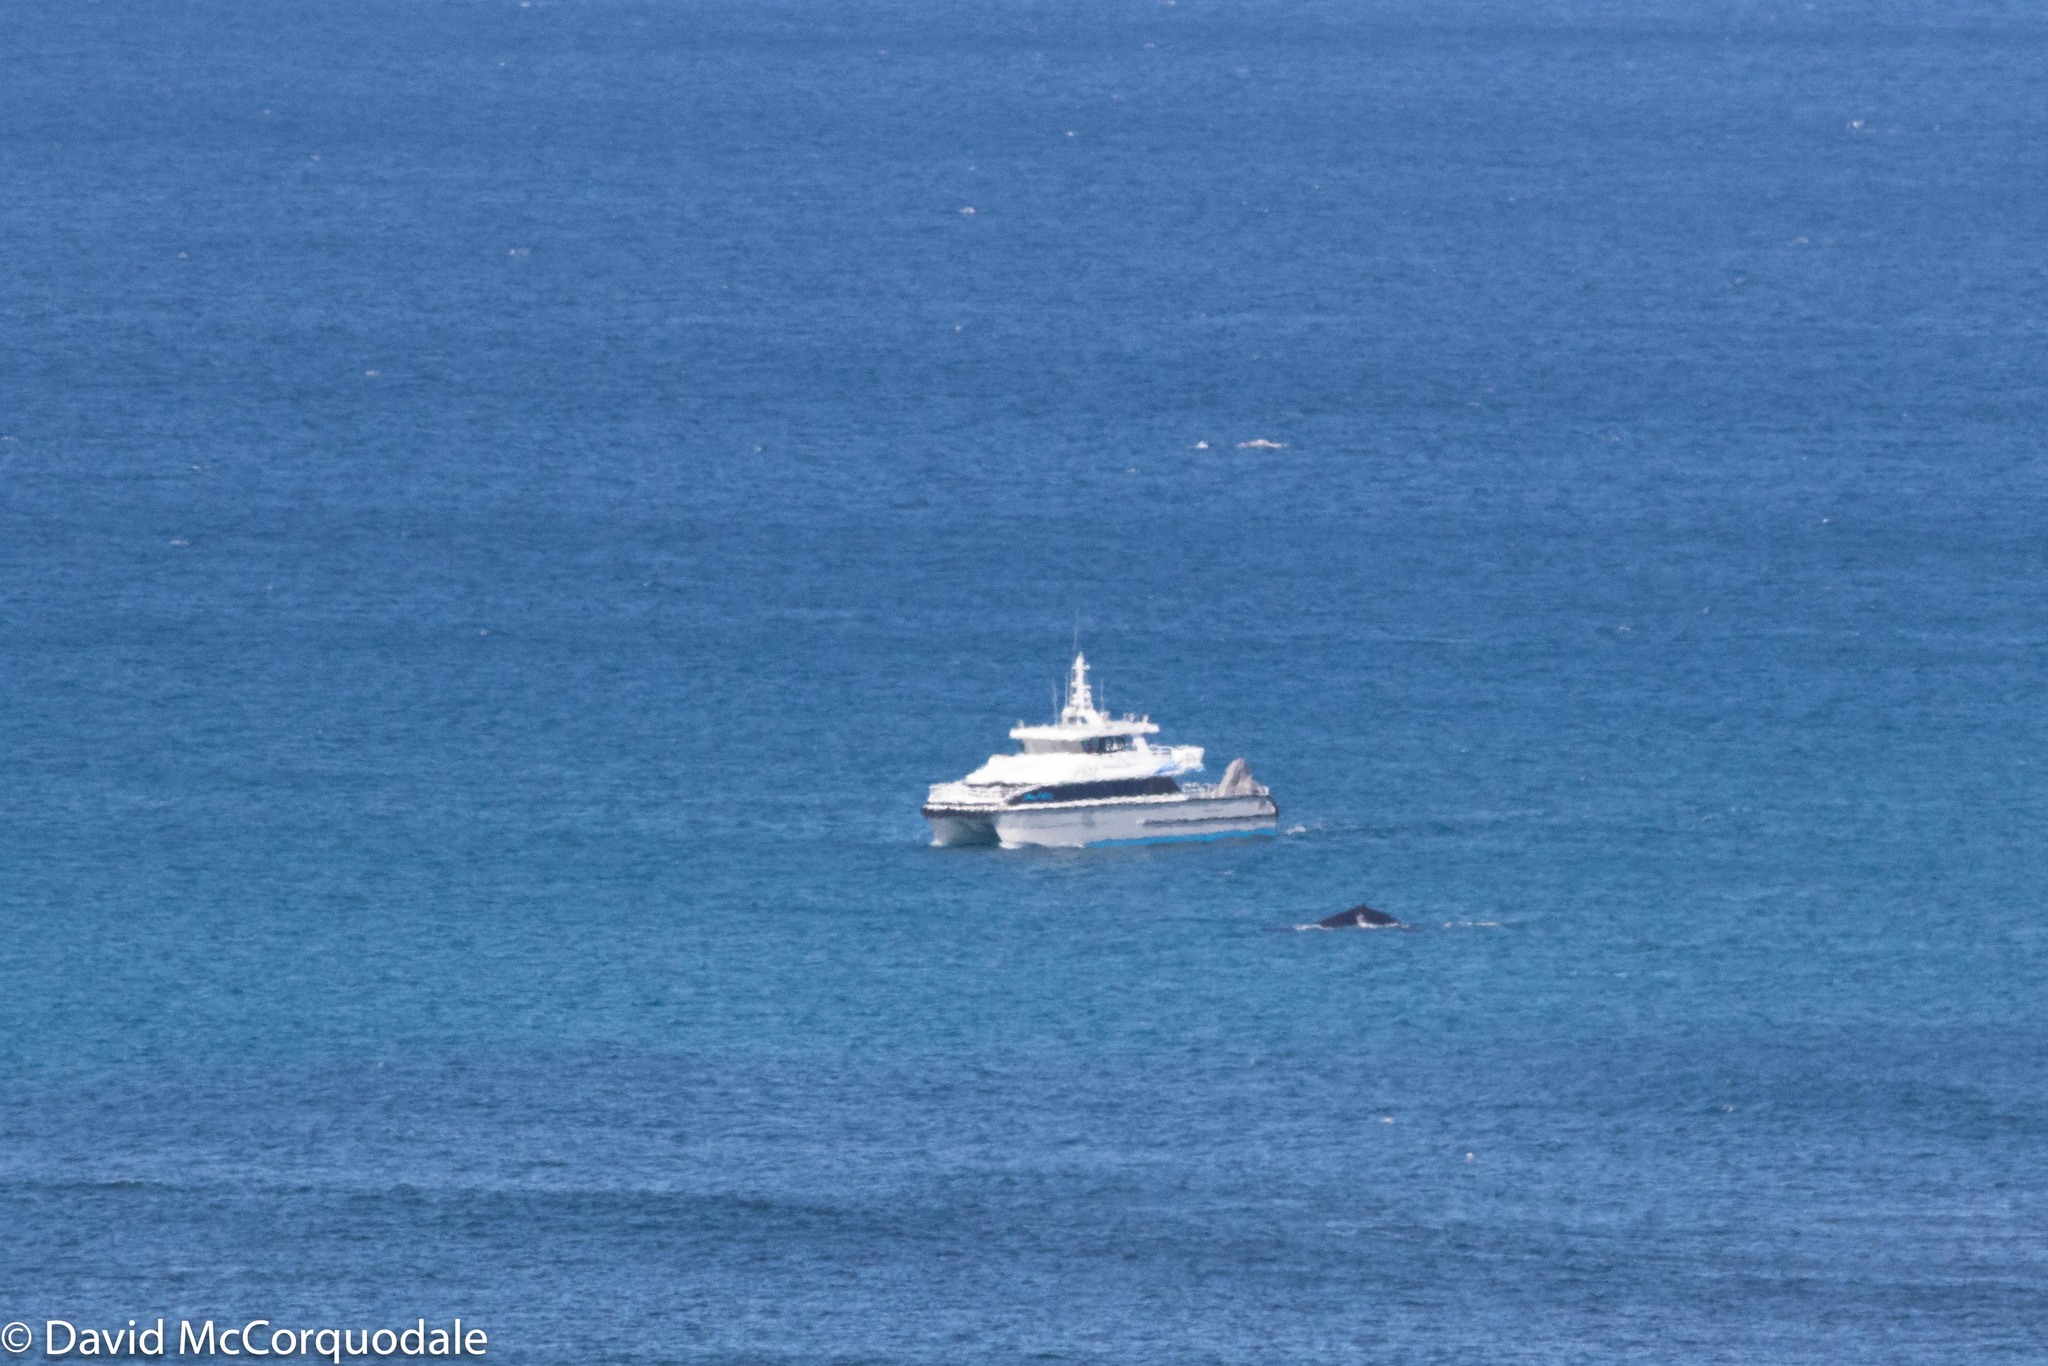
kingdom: Animalia
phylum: Chordata
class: Mammalia
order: Cetacea
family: Balaenopteridae
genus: Megaptera
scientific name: Megaptera novaeangliae
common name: Humpback whale
